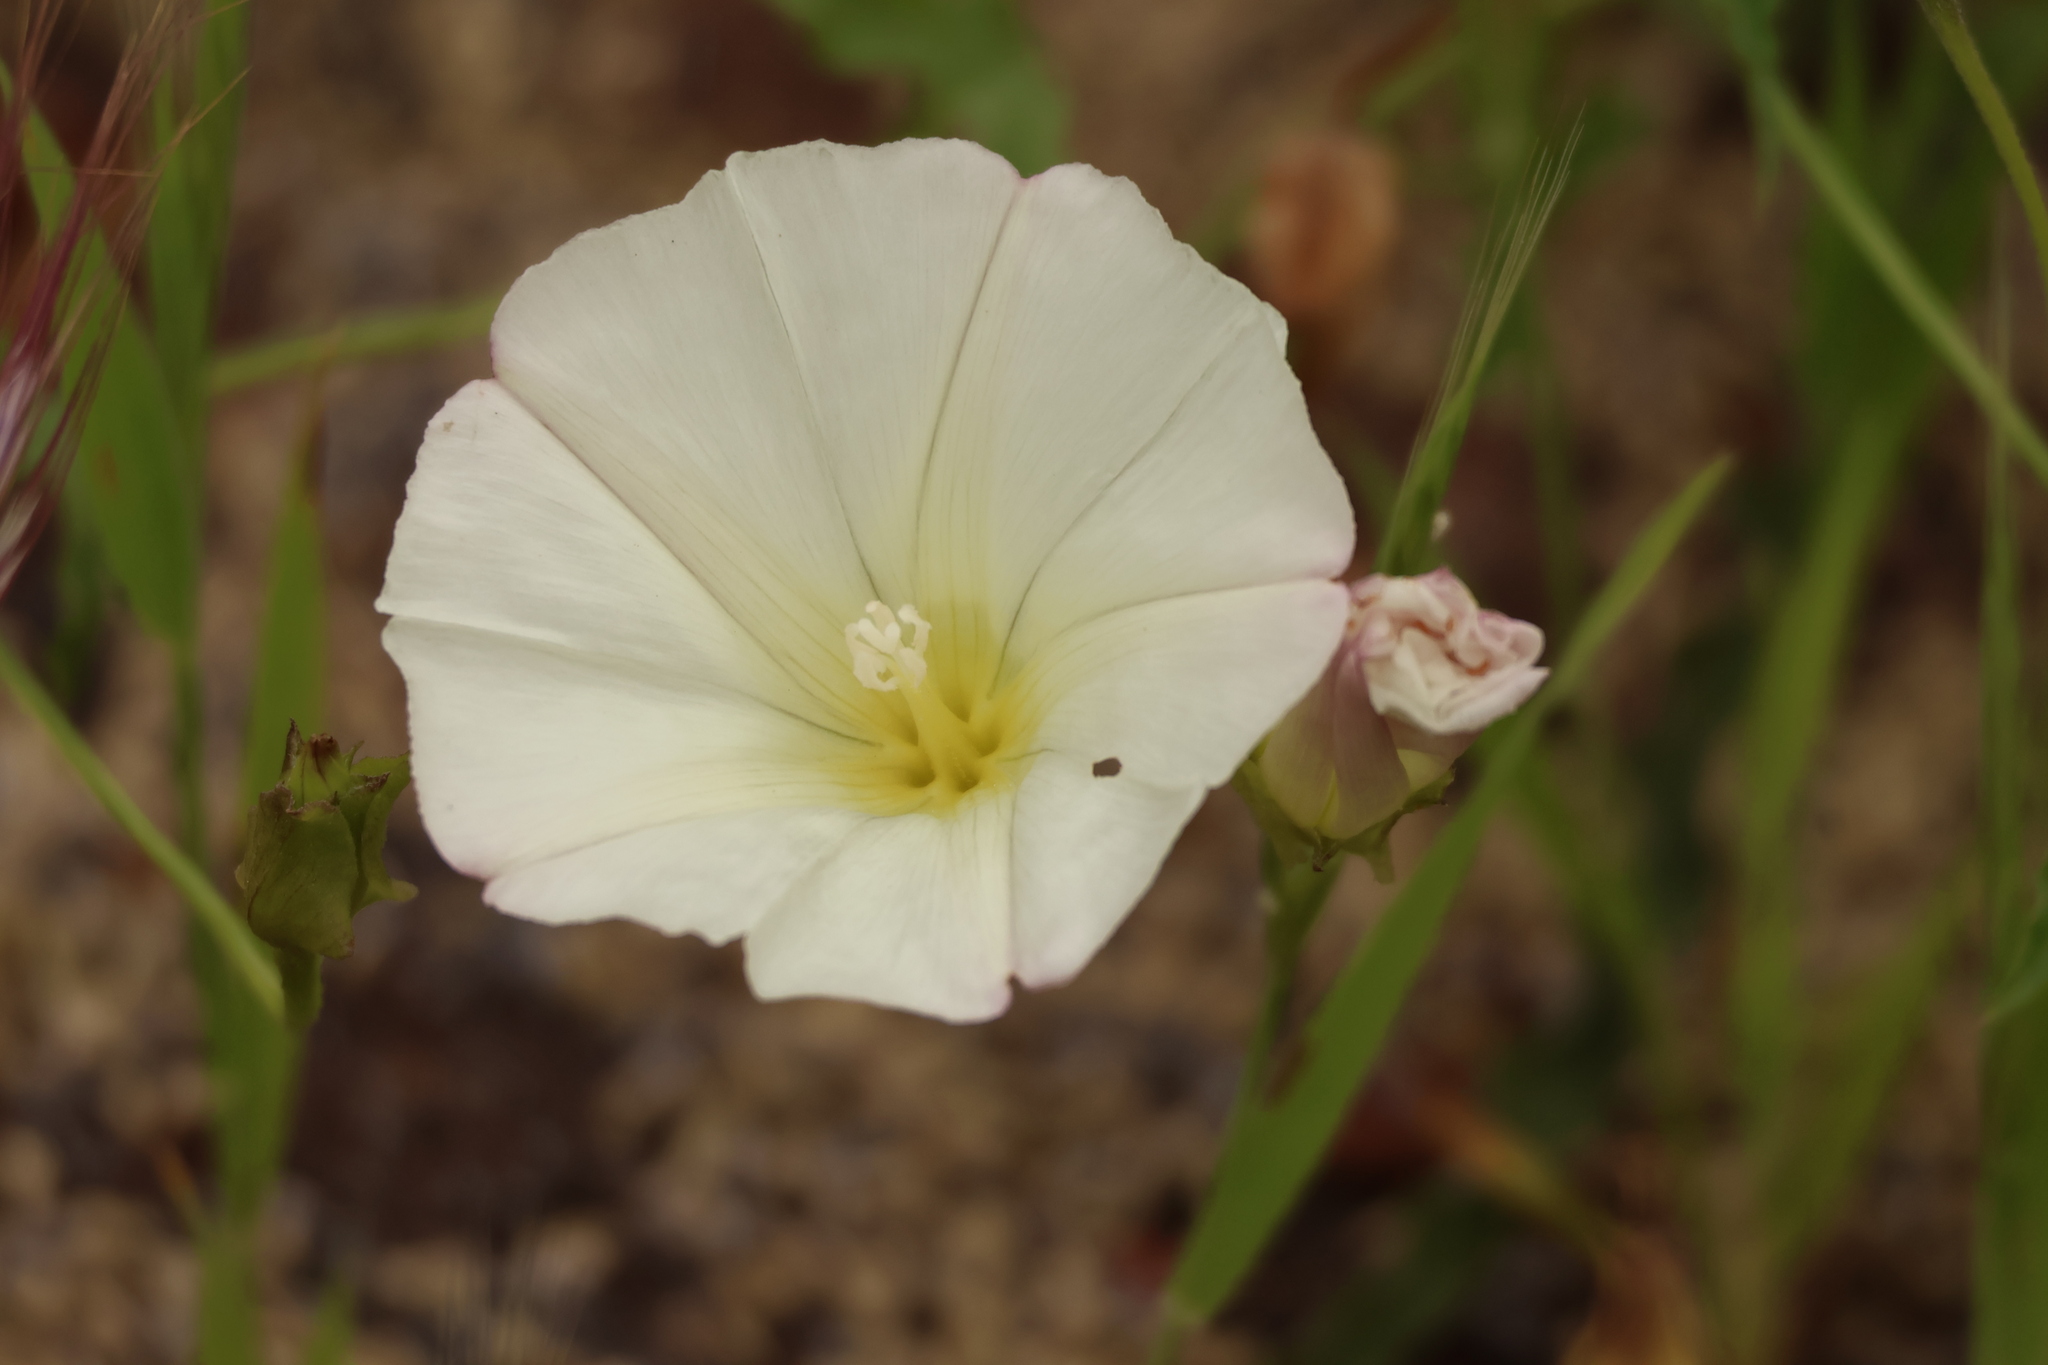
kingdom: Plantae
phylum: Tracheophyta
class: Magnoliopsida
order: Solanales
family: Convolvulaceae
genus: Calystegia
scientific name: Calystegia macrostegia
